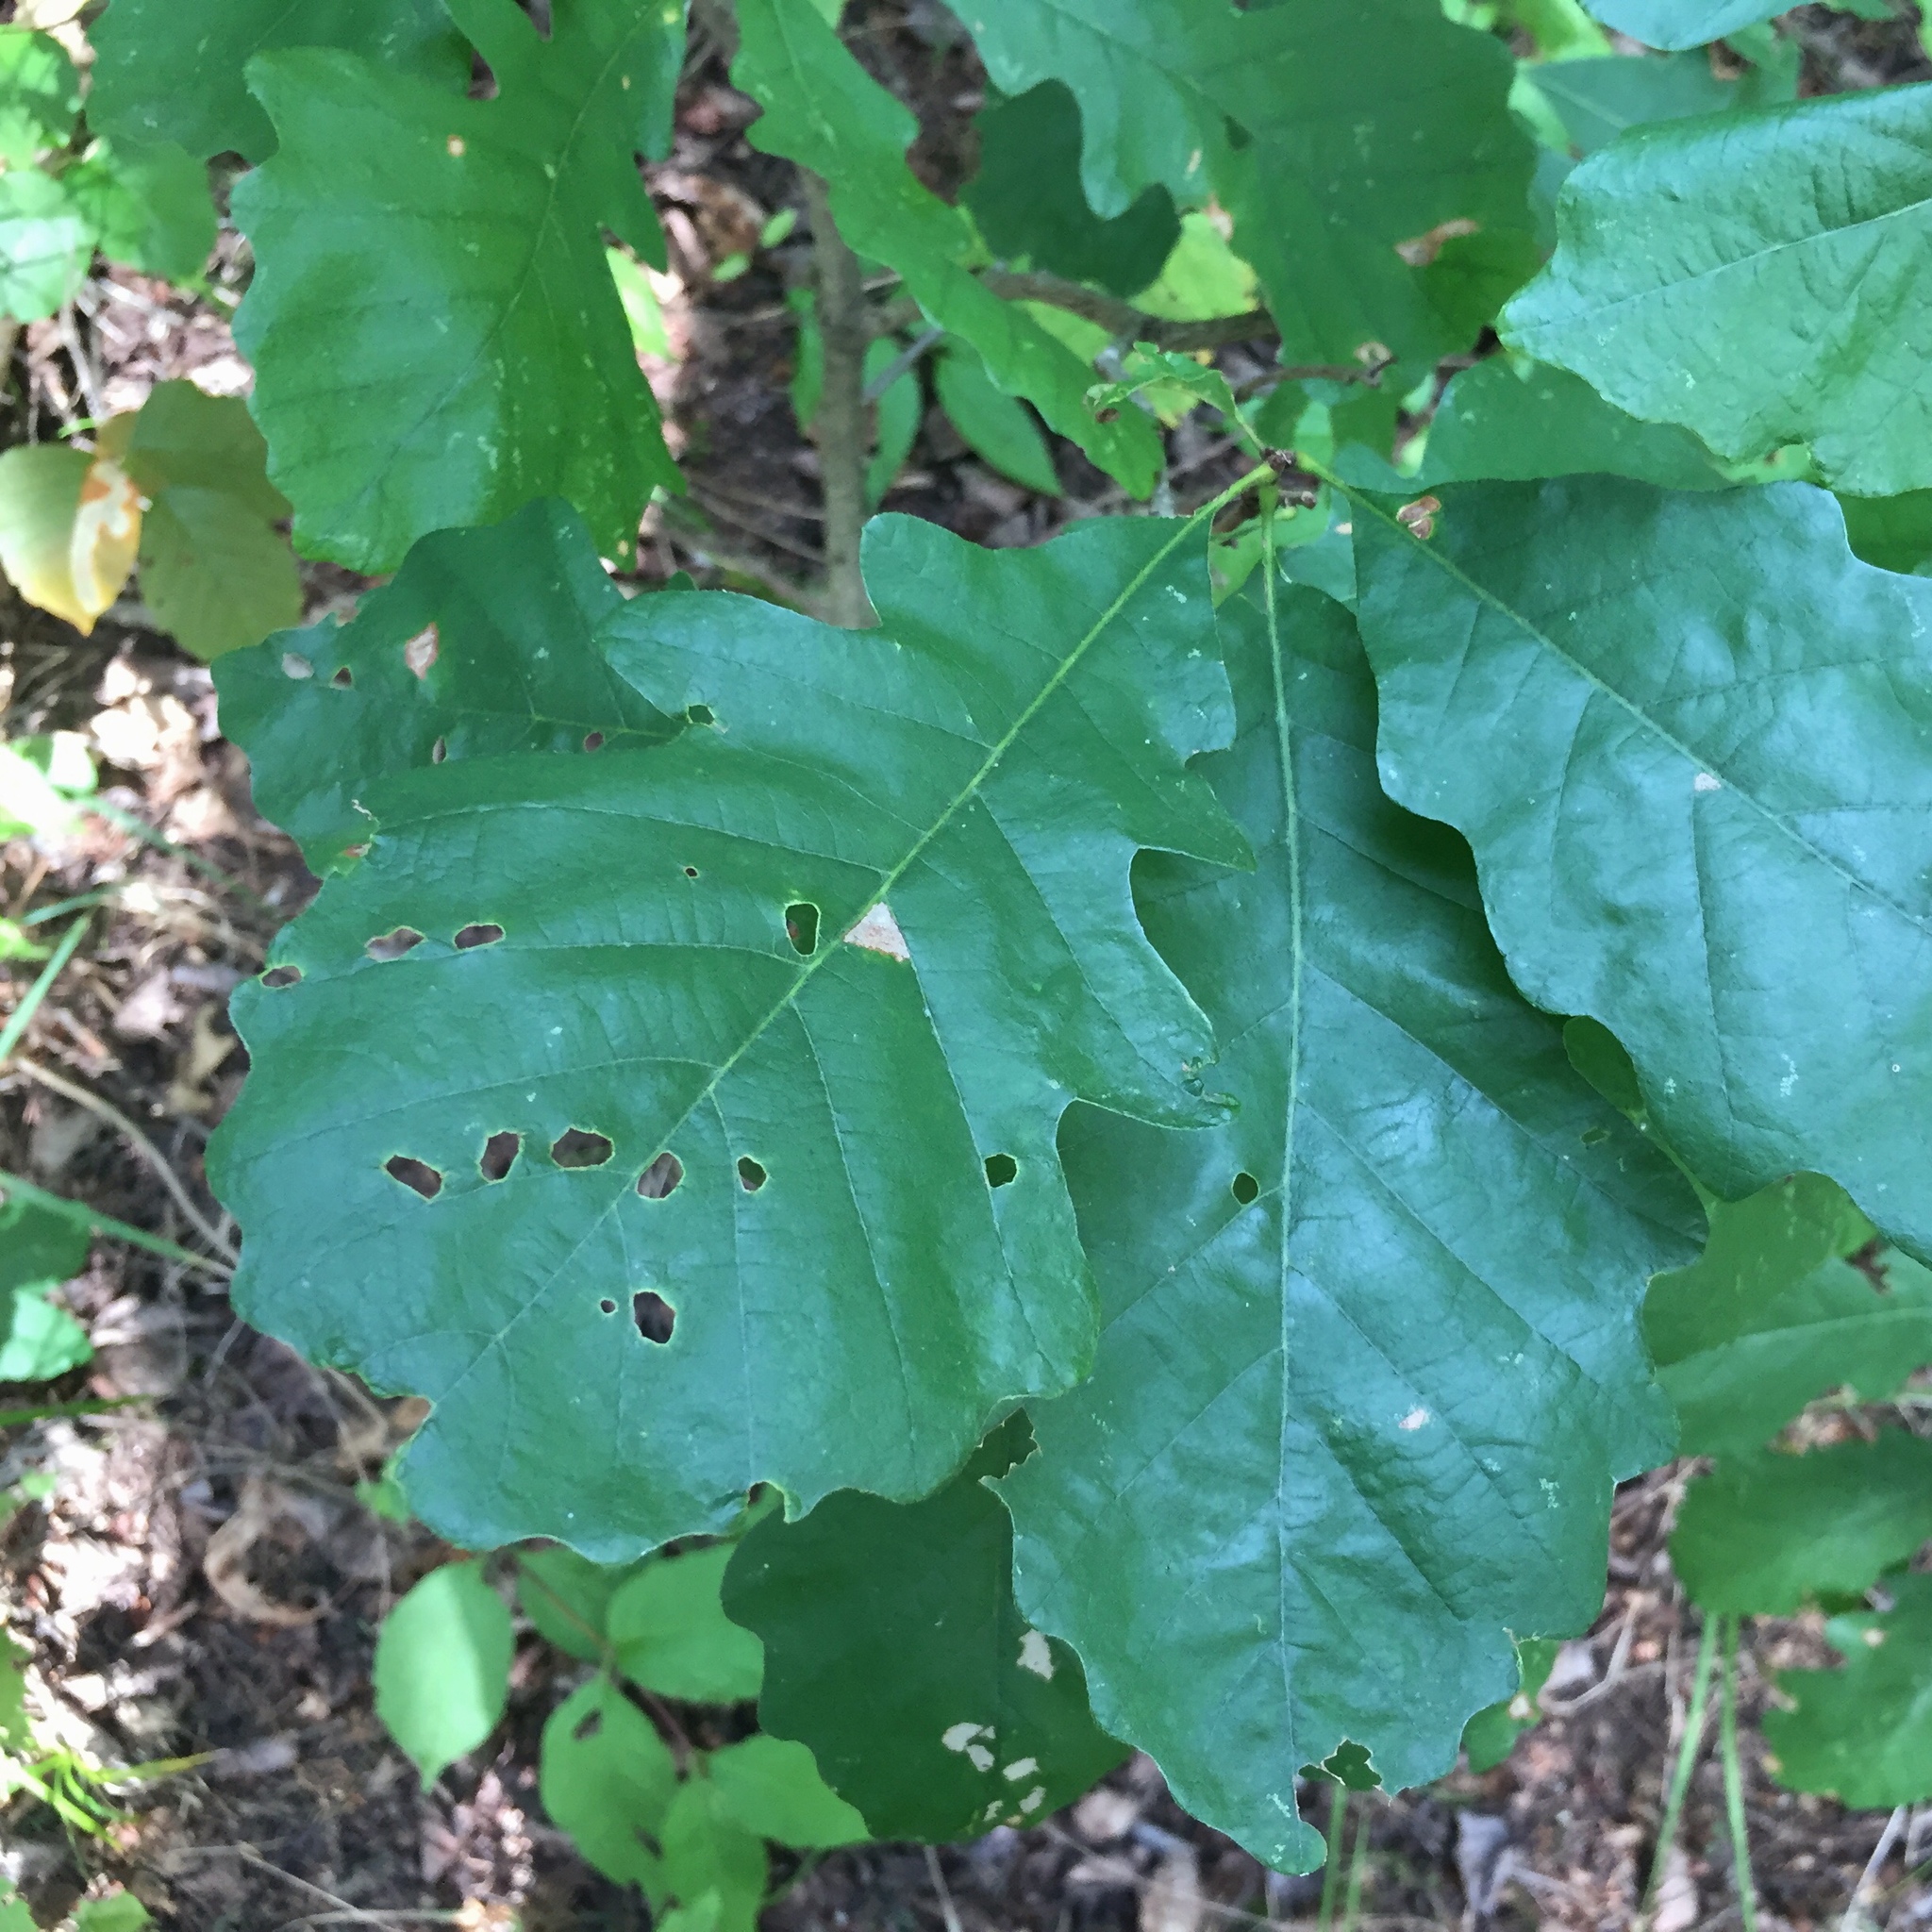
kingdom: Plantae
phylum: Tracheophyta
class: Magnoliopsida
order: Fagales
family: Fagaceae
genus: Quercus
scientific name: Quercus macrocarpa
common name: Bur oak
